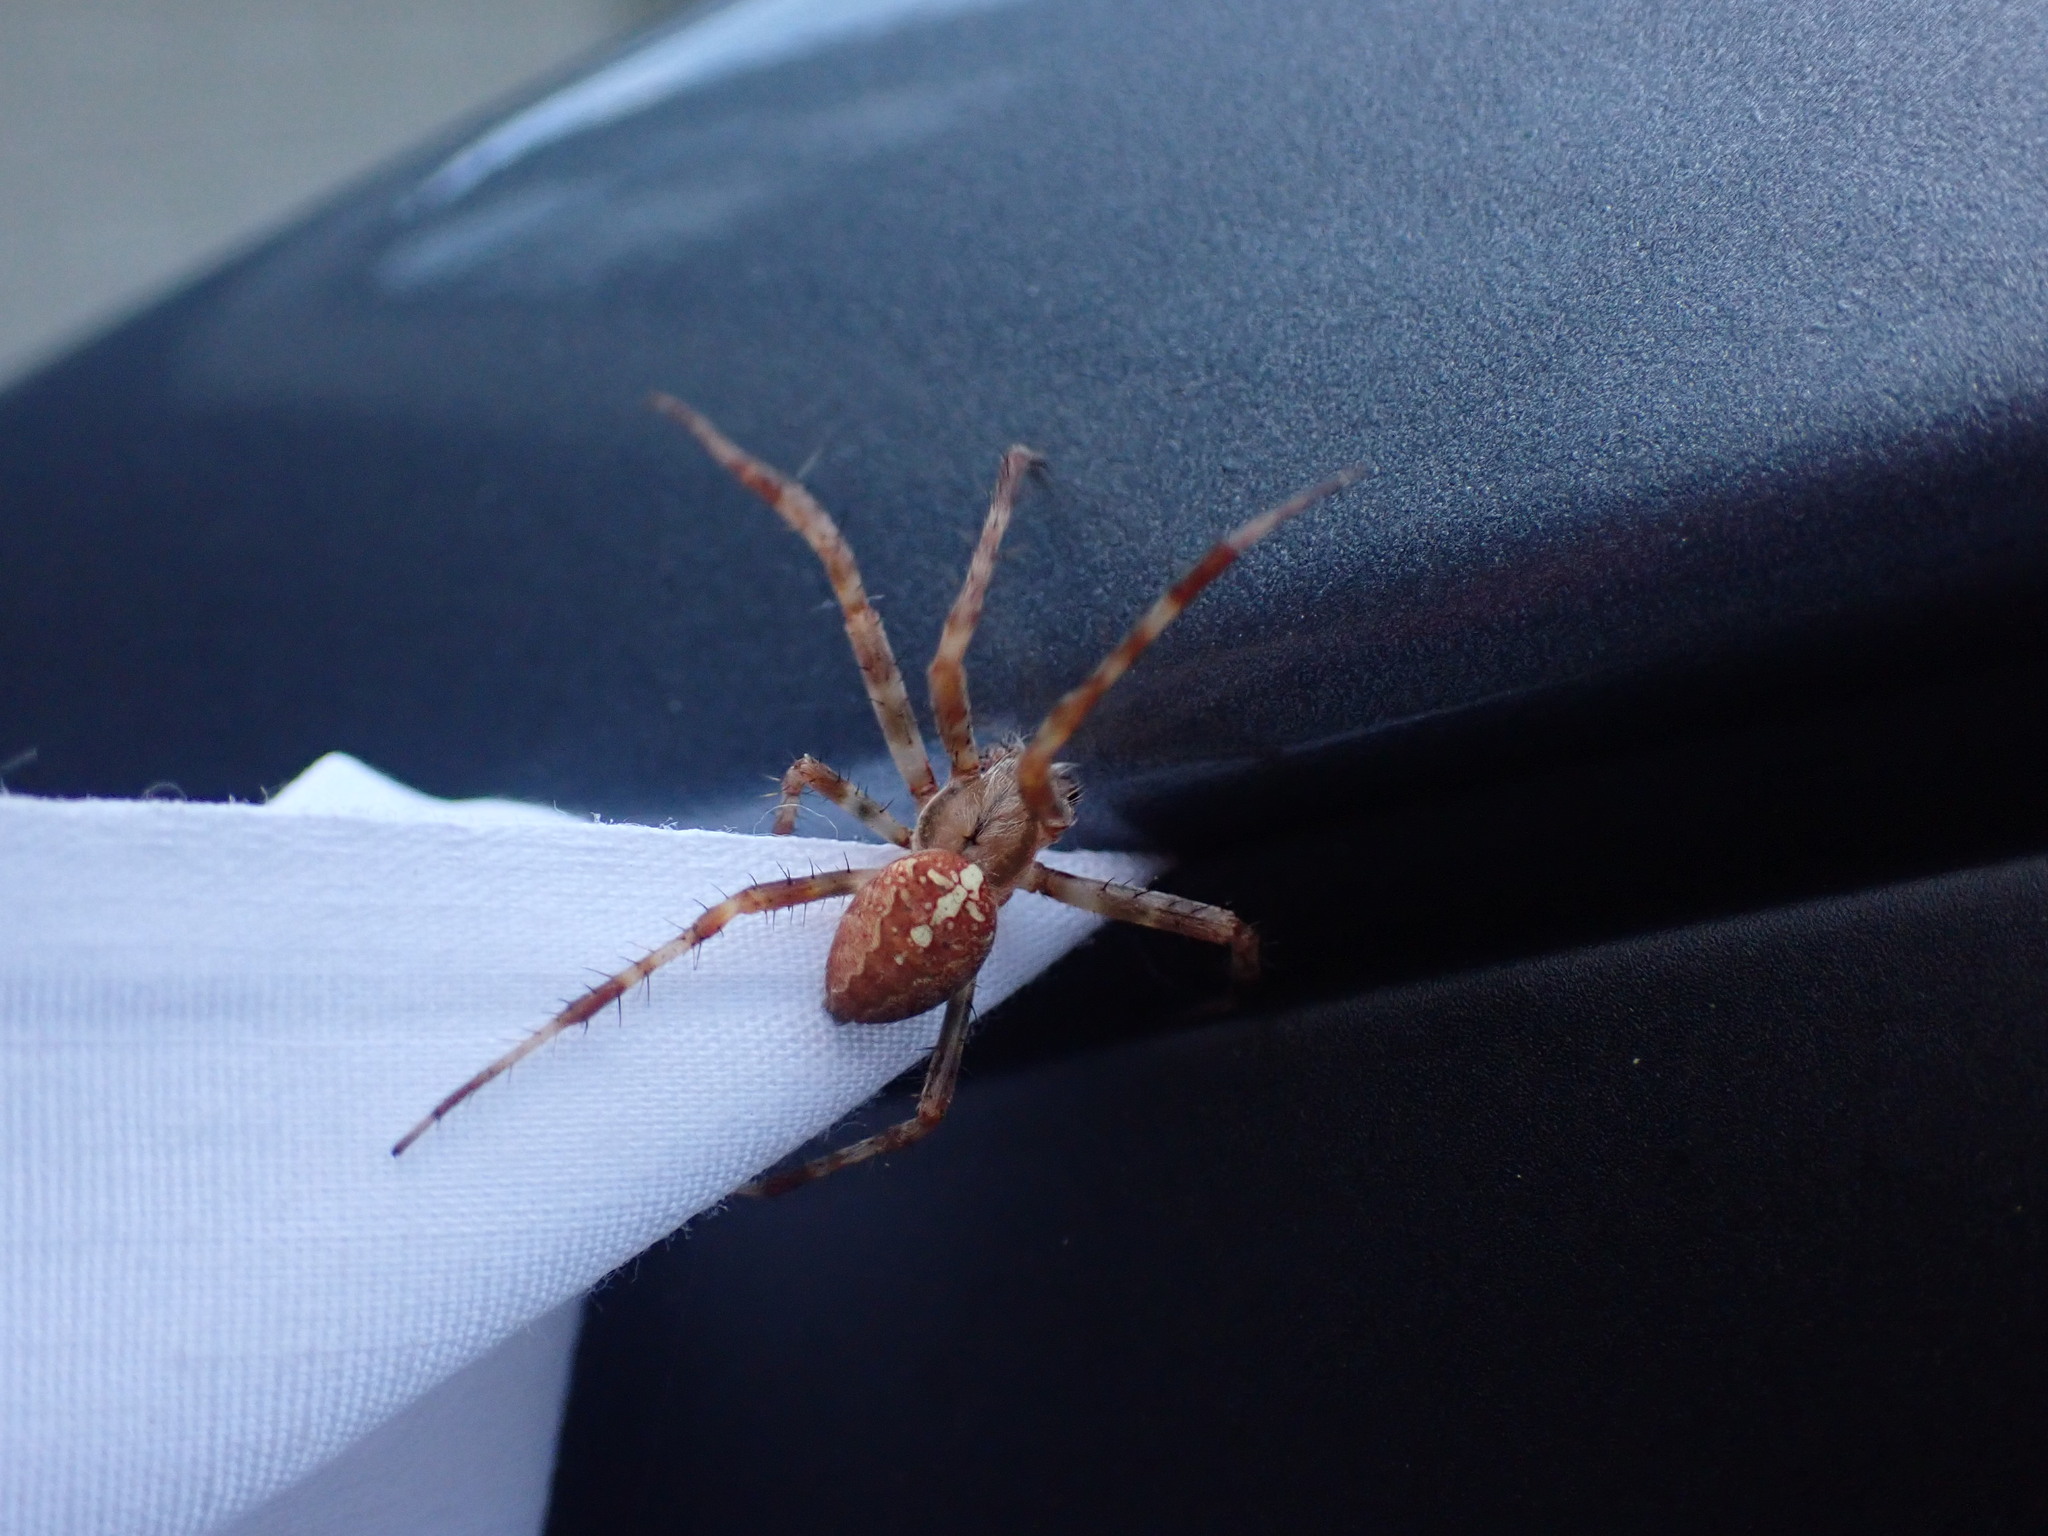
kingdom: Animalia
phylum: Arthropoda
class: Arachnida
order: Araneae
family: Araneidae
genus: Araneus
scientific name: Araneus diadematus
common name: Cross orbweaver
